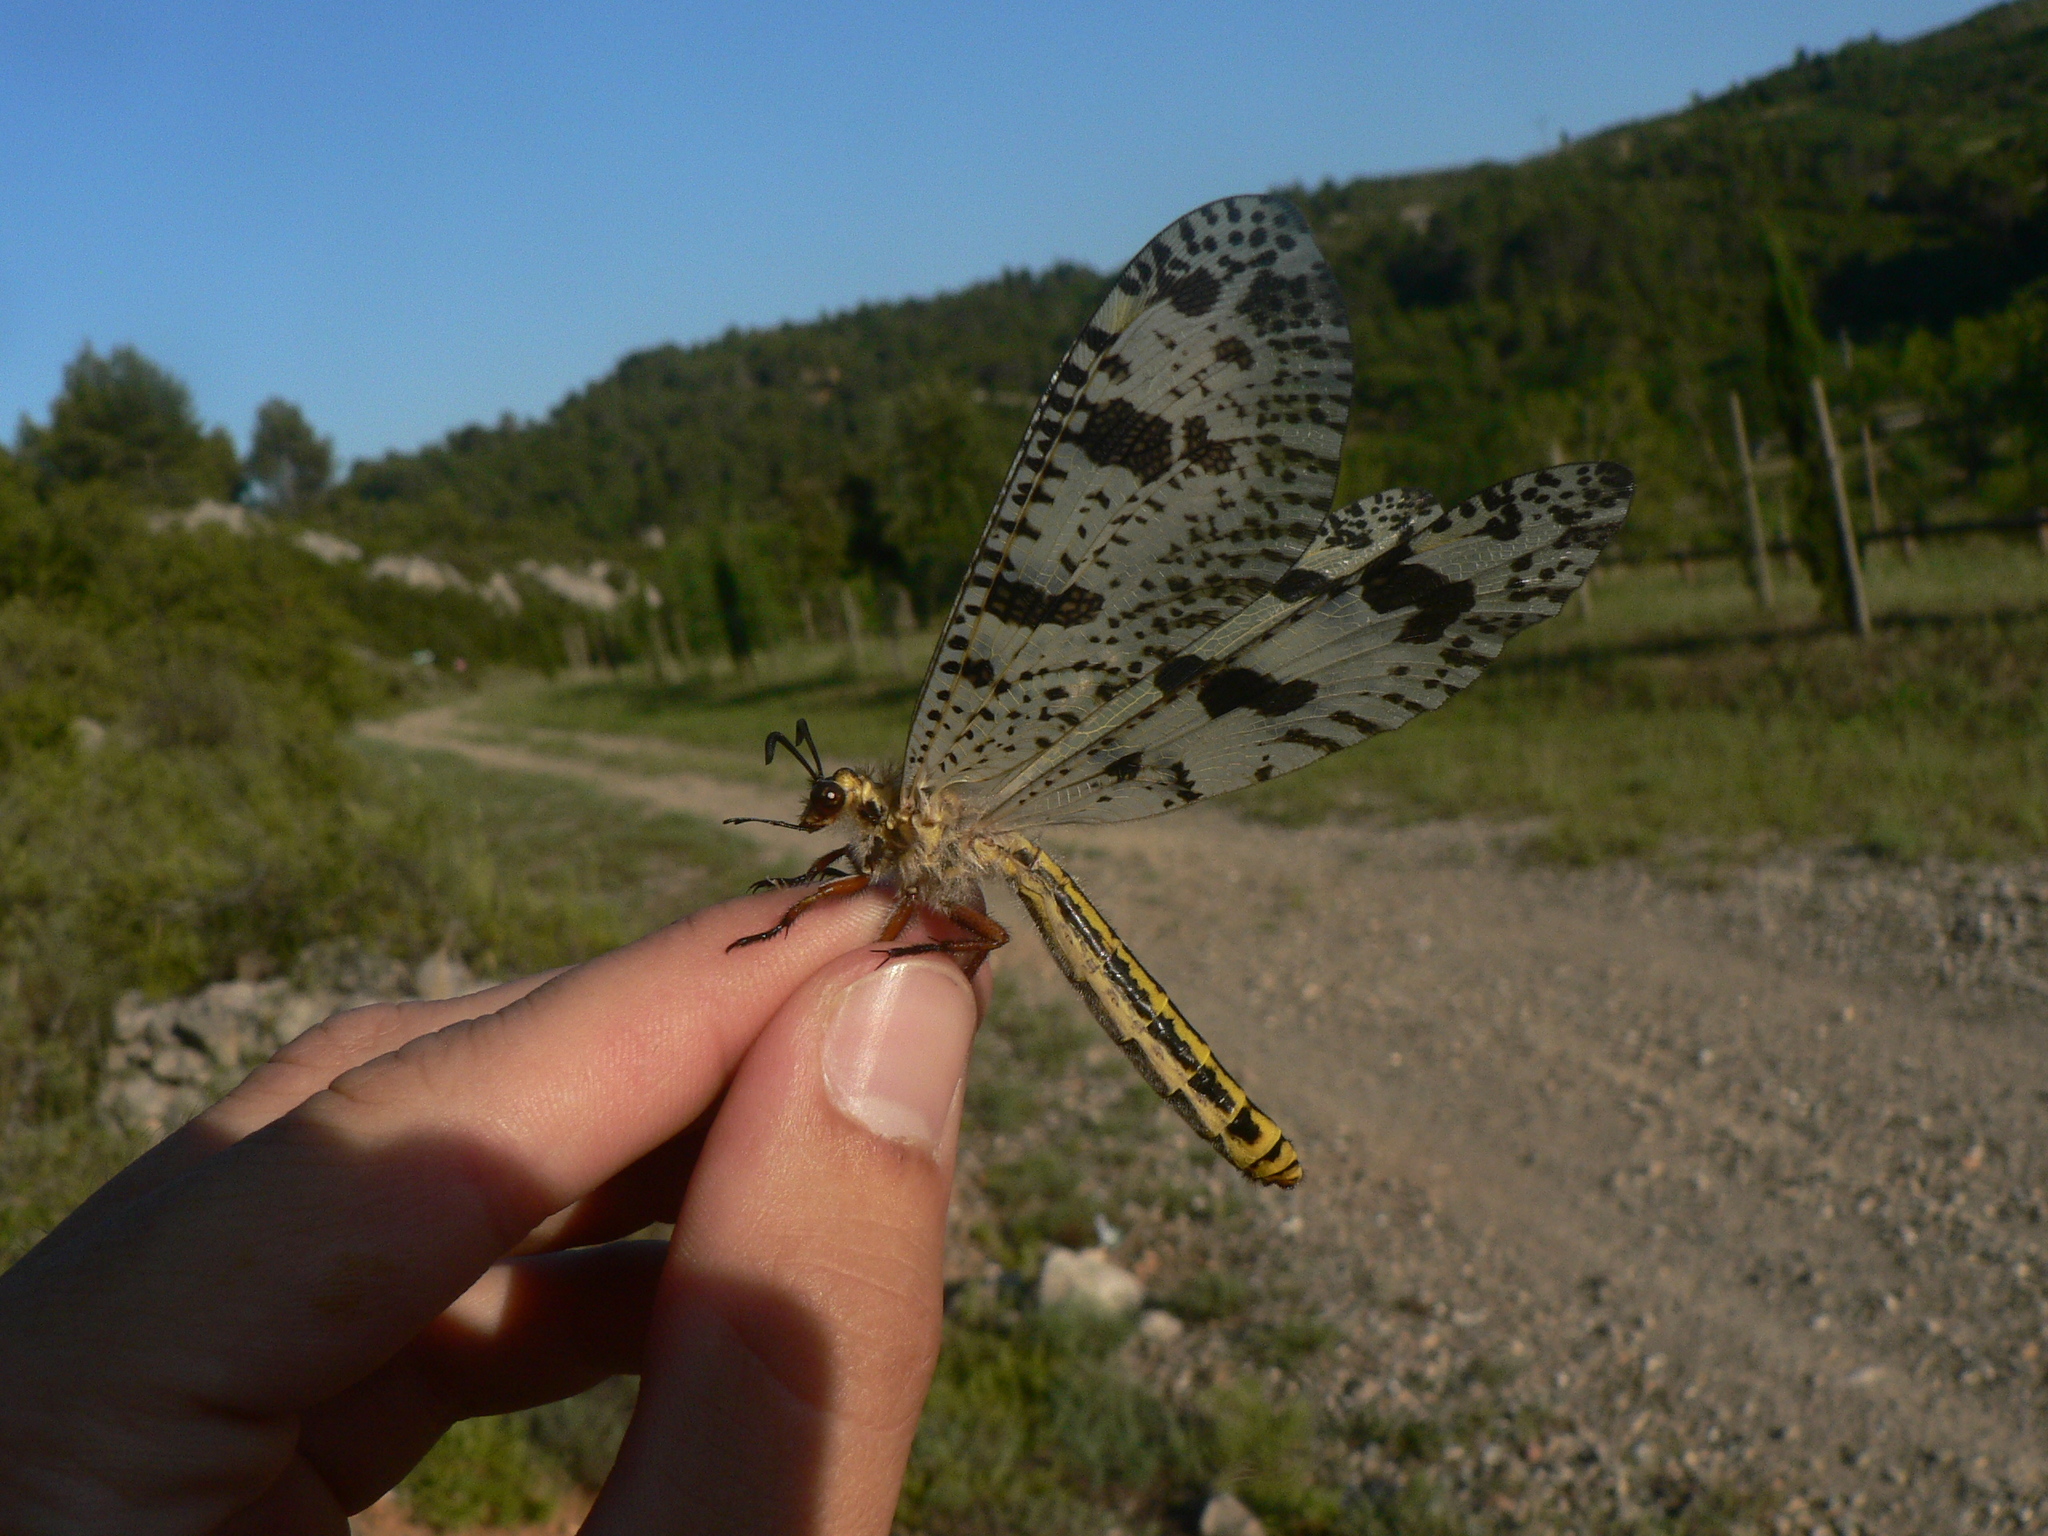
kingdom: Animalia
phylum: Arthropoda
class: Insecta
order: Neuroptera
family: Myrmeleontidae
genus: Palpares
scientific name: Palpares libelluloides
